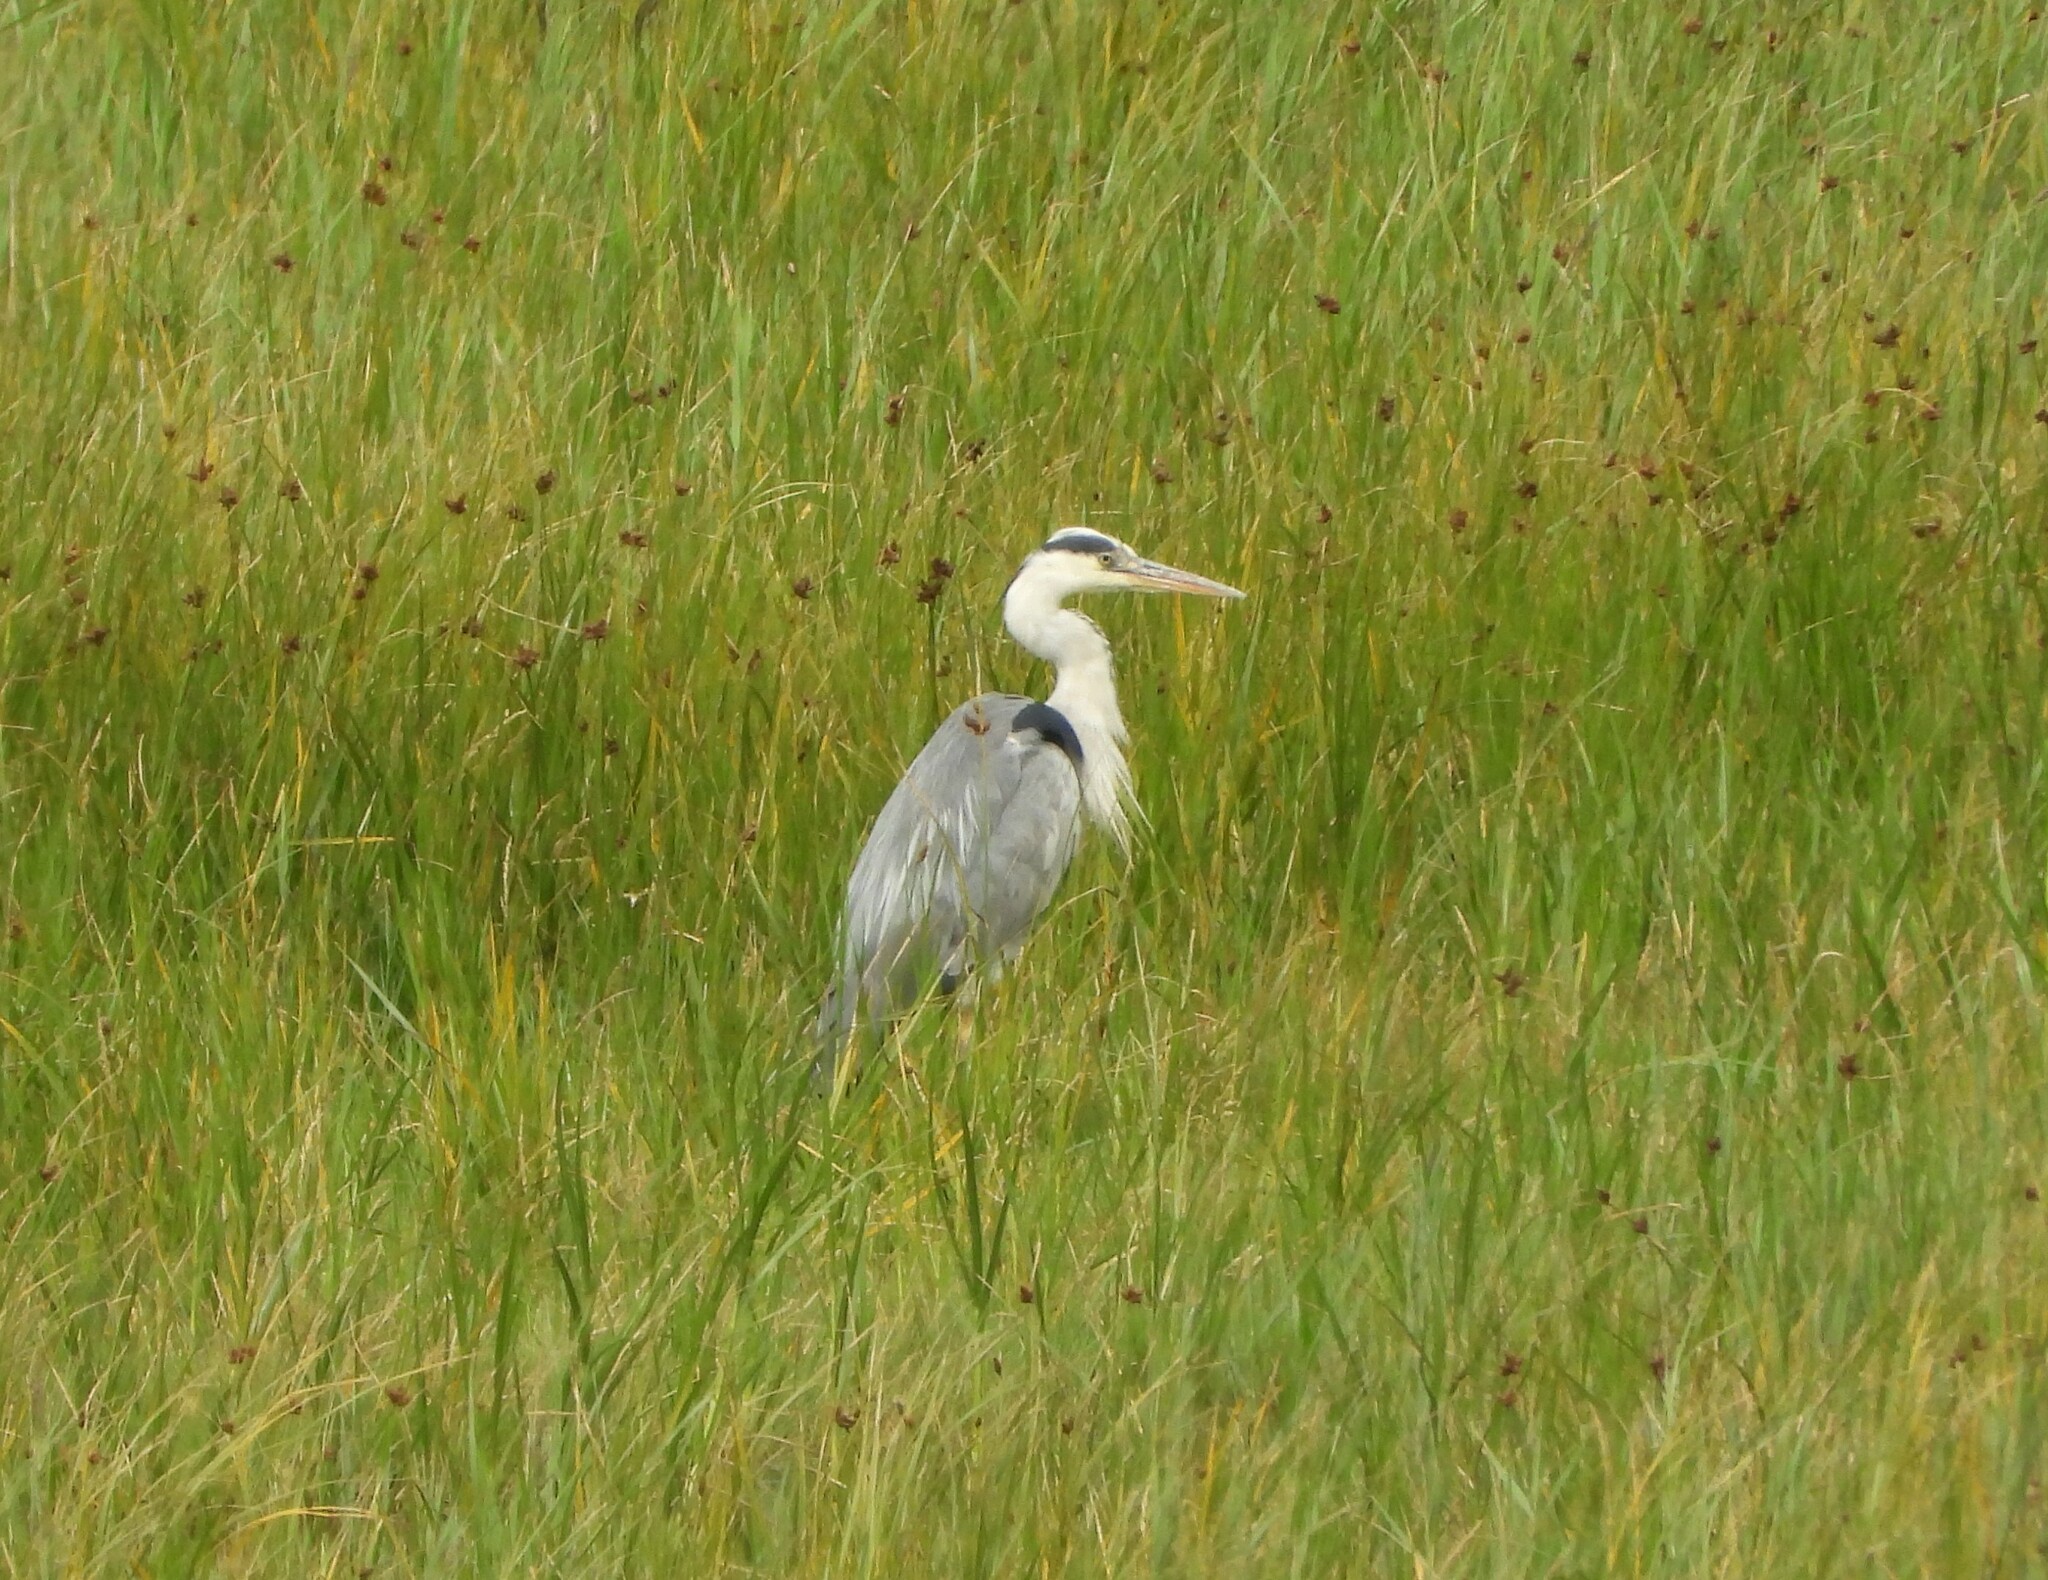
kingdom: Animalia
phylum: Chordata
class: Aves
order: Pelecaniformes
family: Ardeidae
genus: Ardea
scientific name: Ardea cinerea
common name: Grey heron
